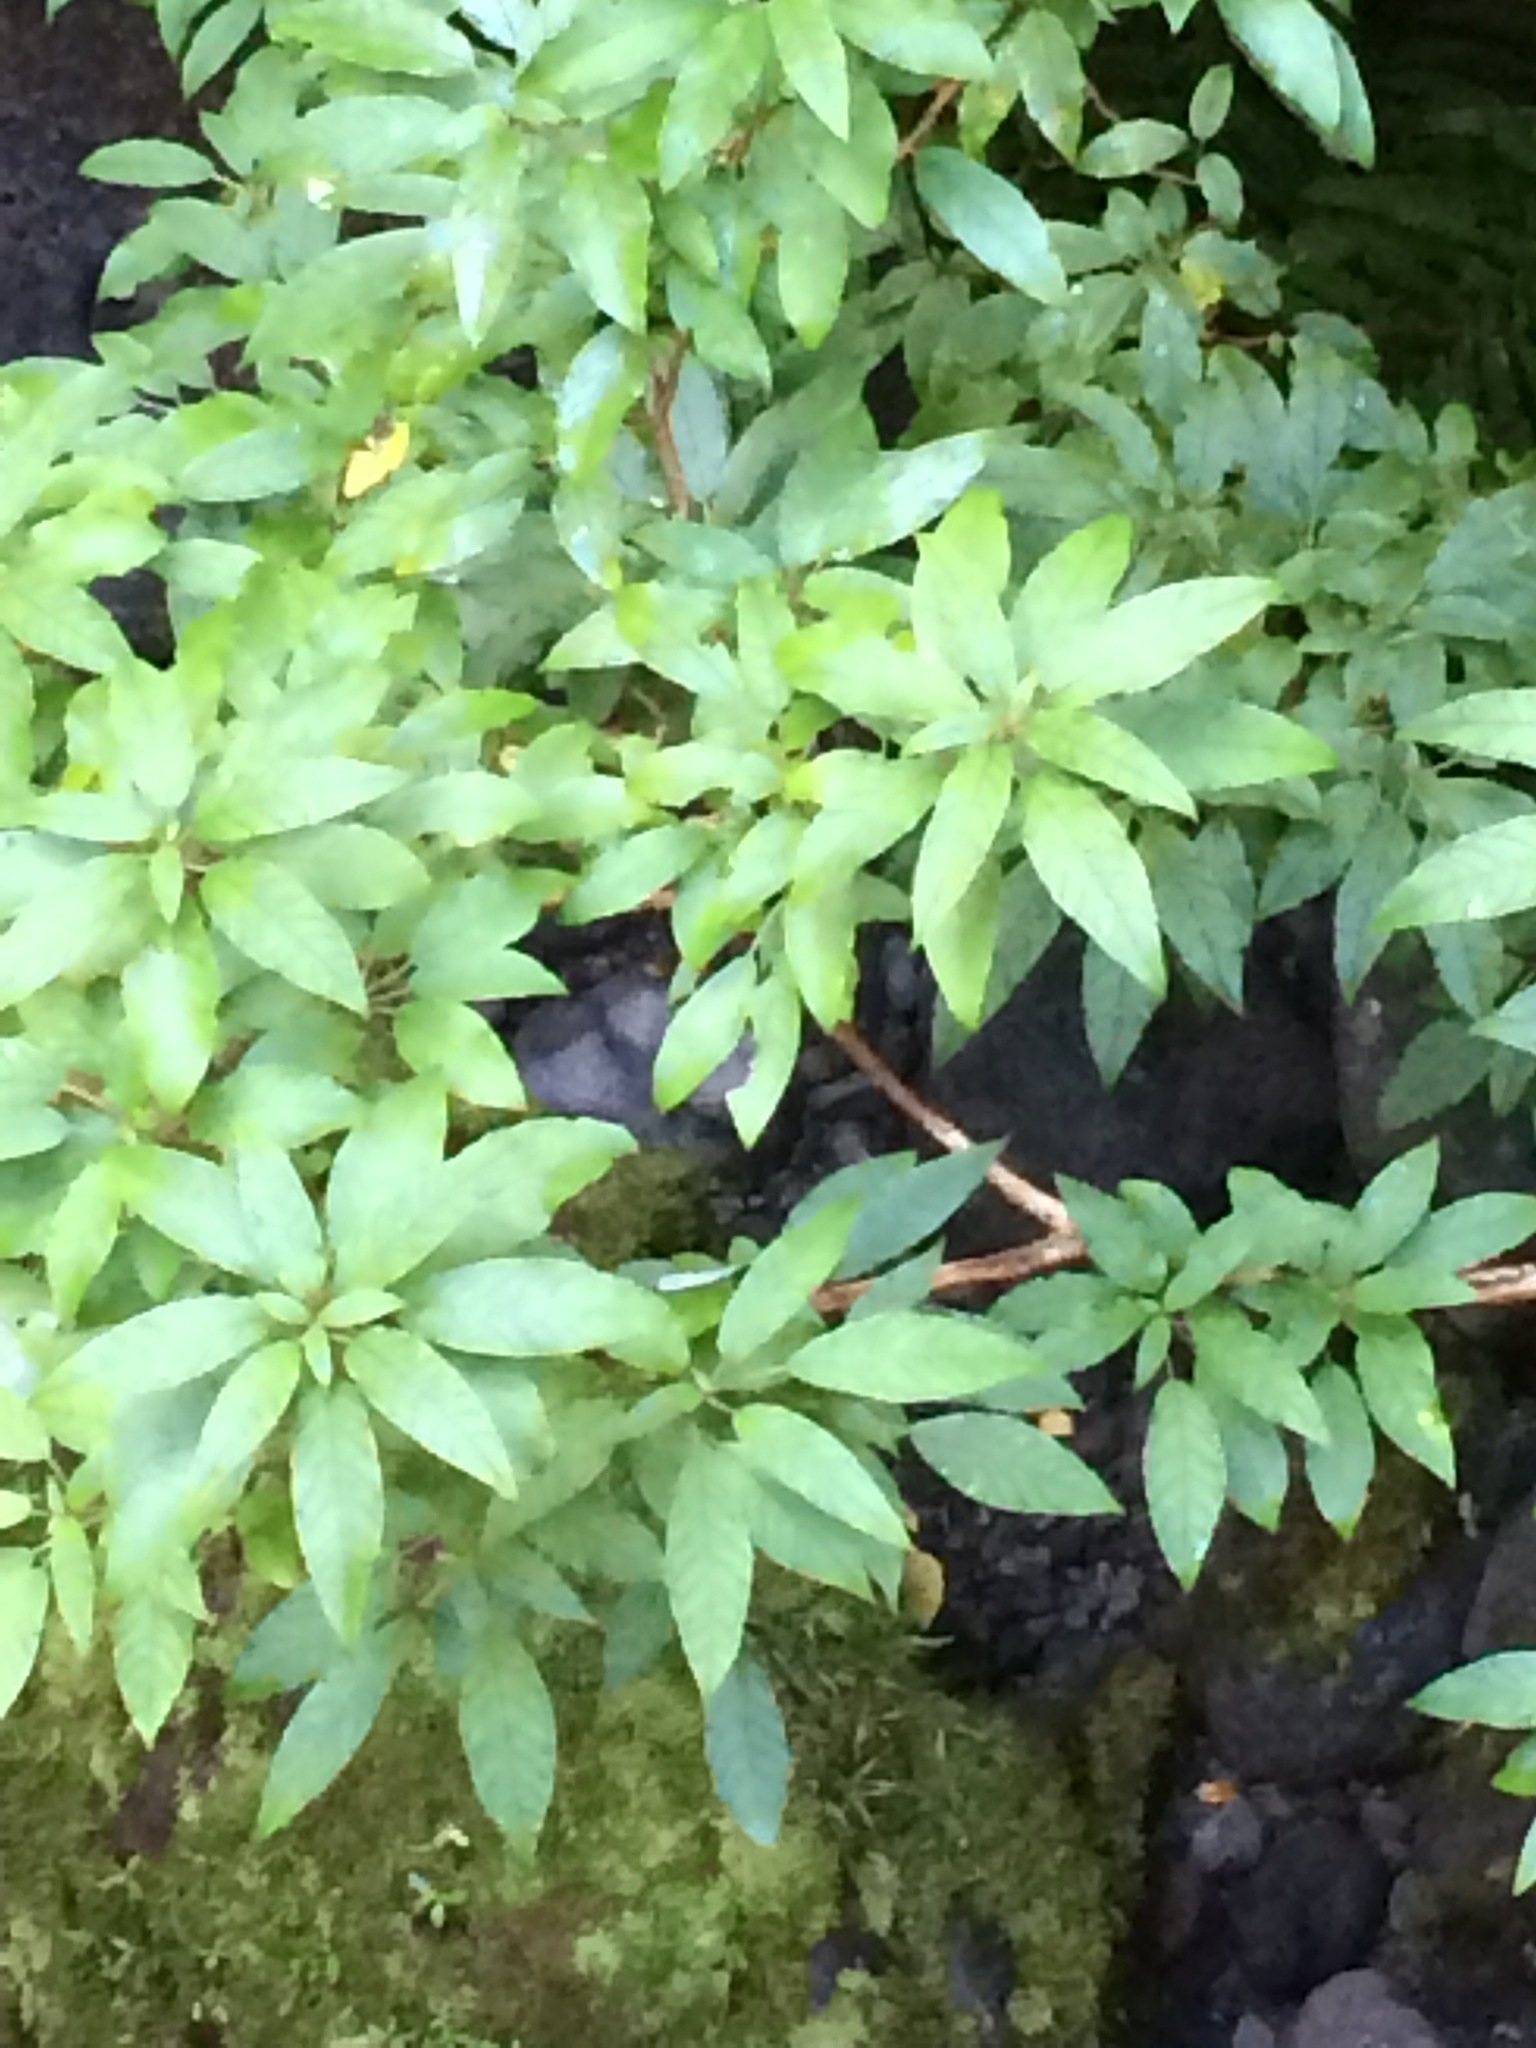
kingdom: Plantae
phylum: Tracheophyta
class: Magnoliopsida
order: Myrtales
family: Onagraceae
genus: Fuchsia
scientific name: Fuchsia excorticata
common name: Tree fuchsia
